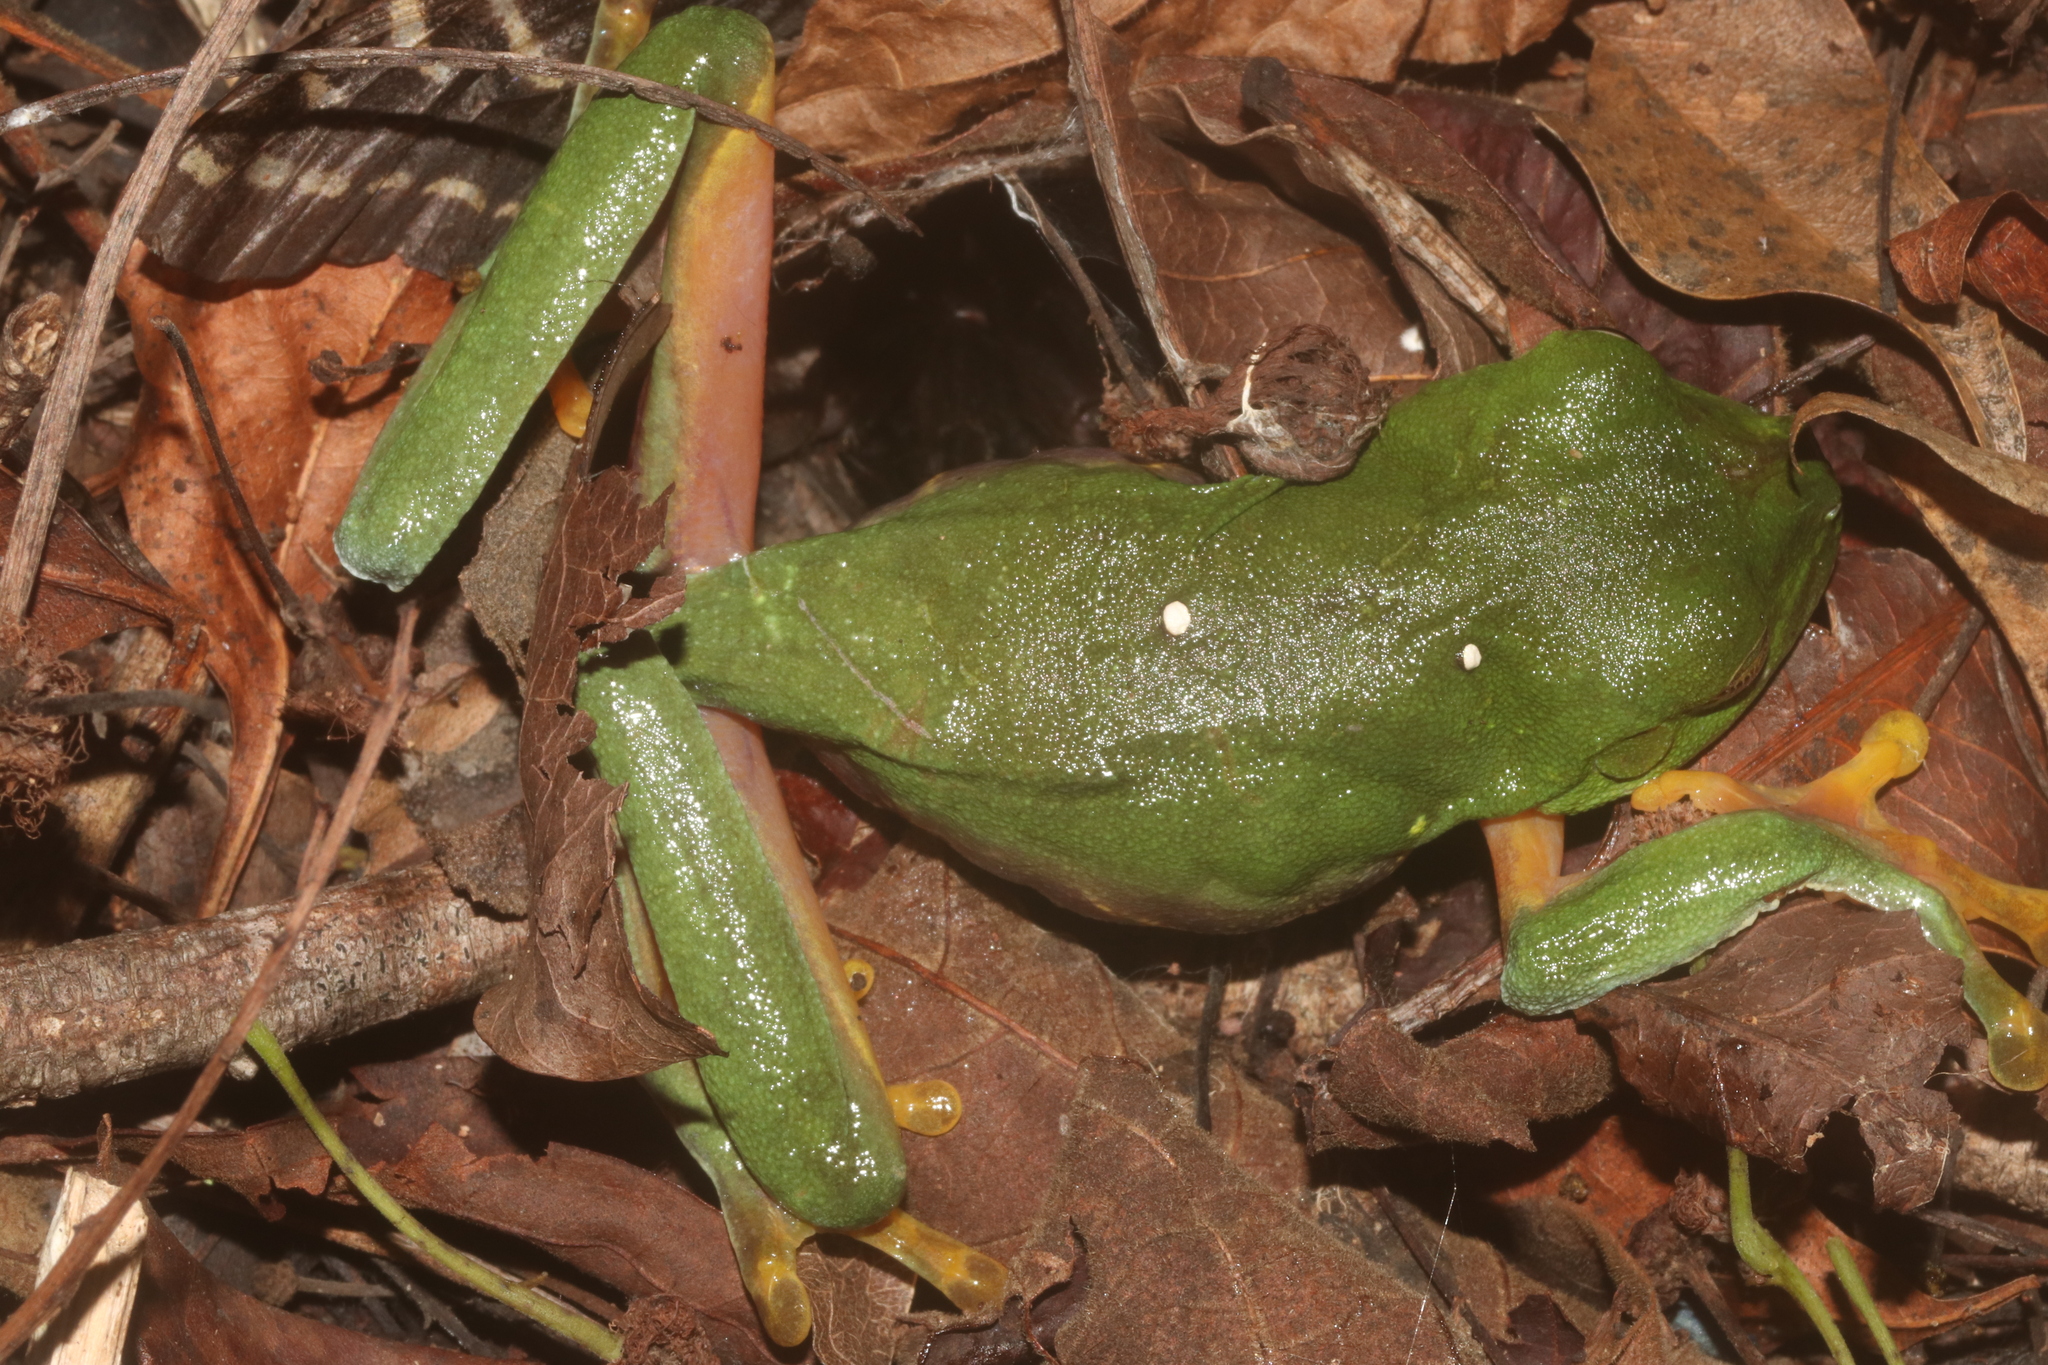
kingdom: Animalia
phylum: Chordata
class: Amphibia
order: Anura
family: Phyllomedusidae
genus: Agalychnis
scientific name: Agalychnis
